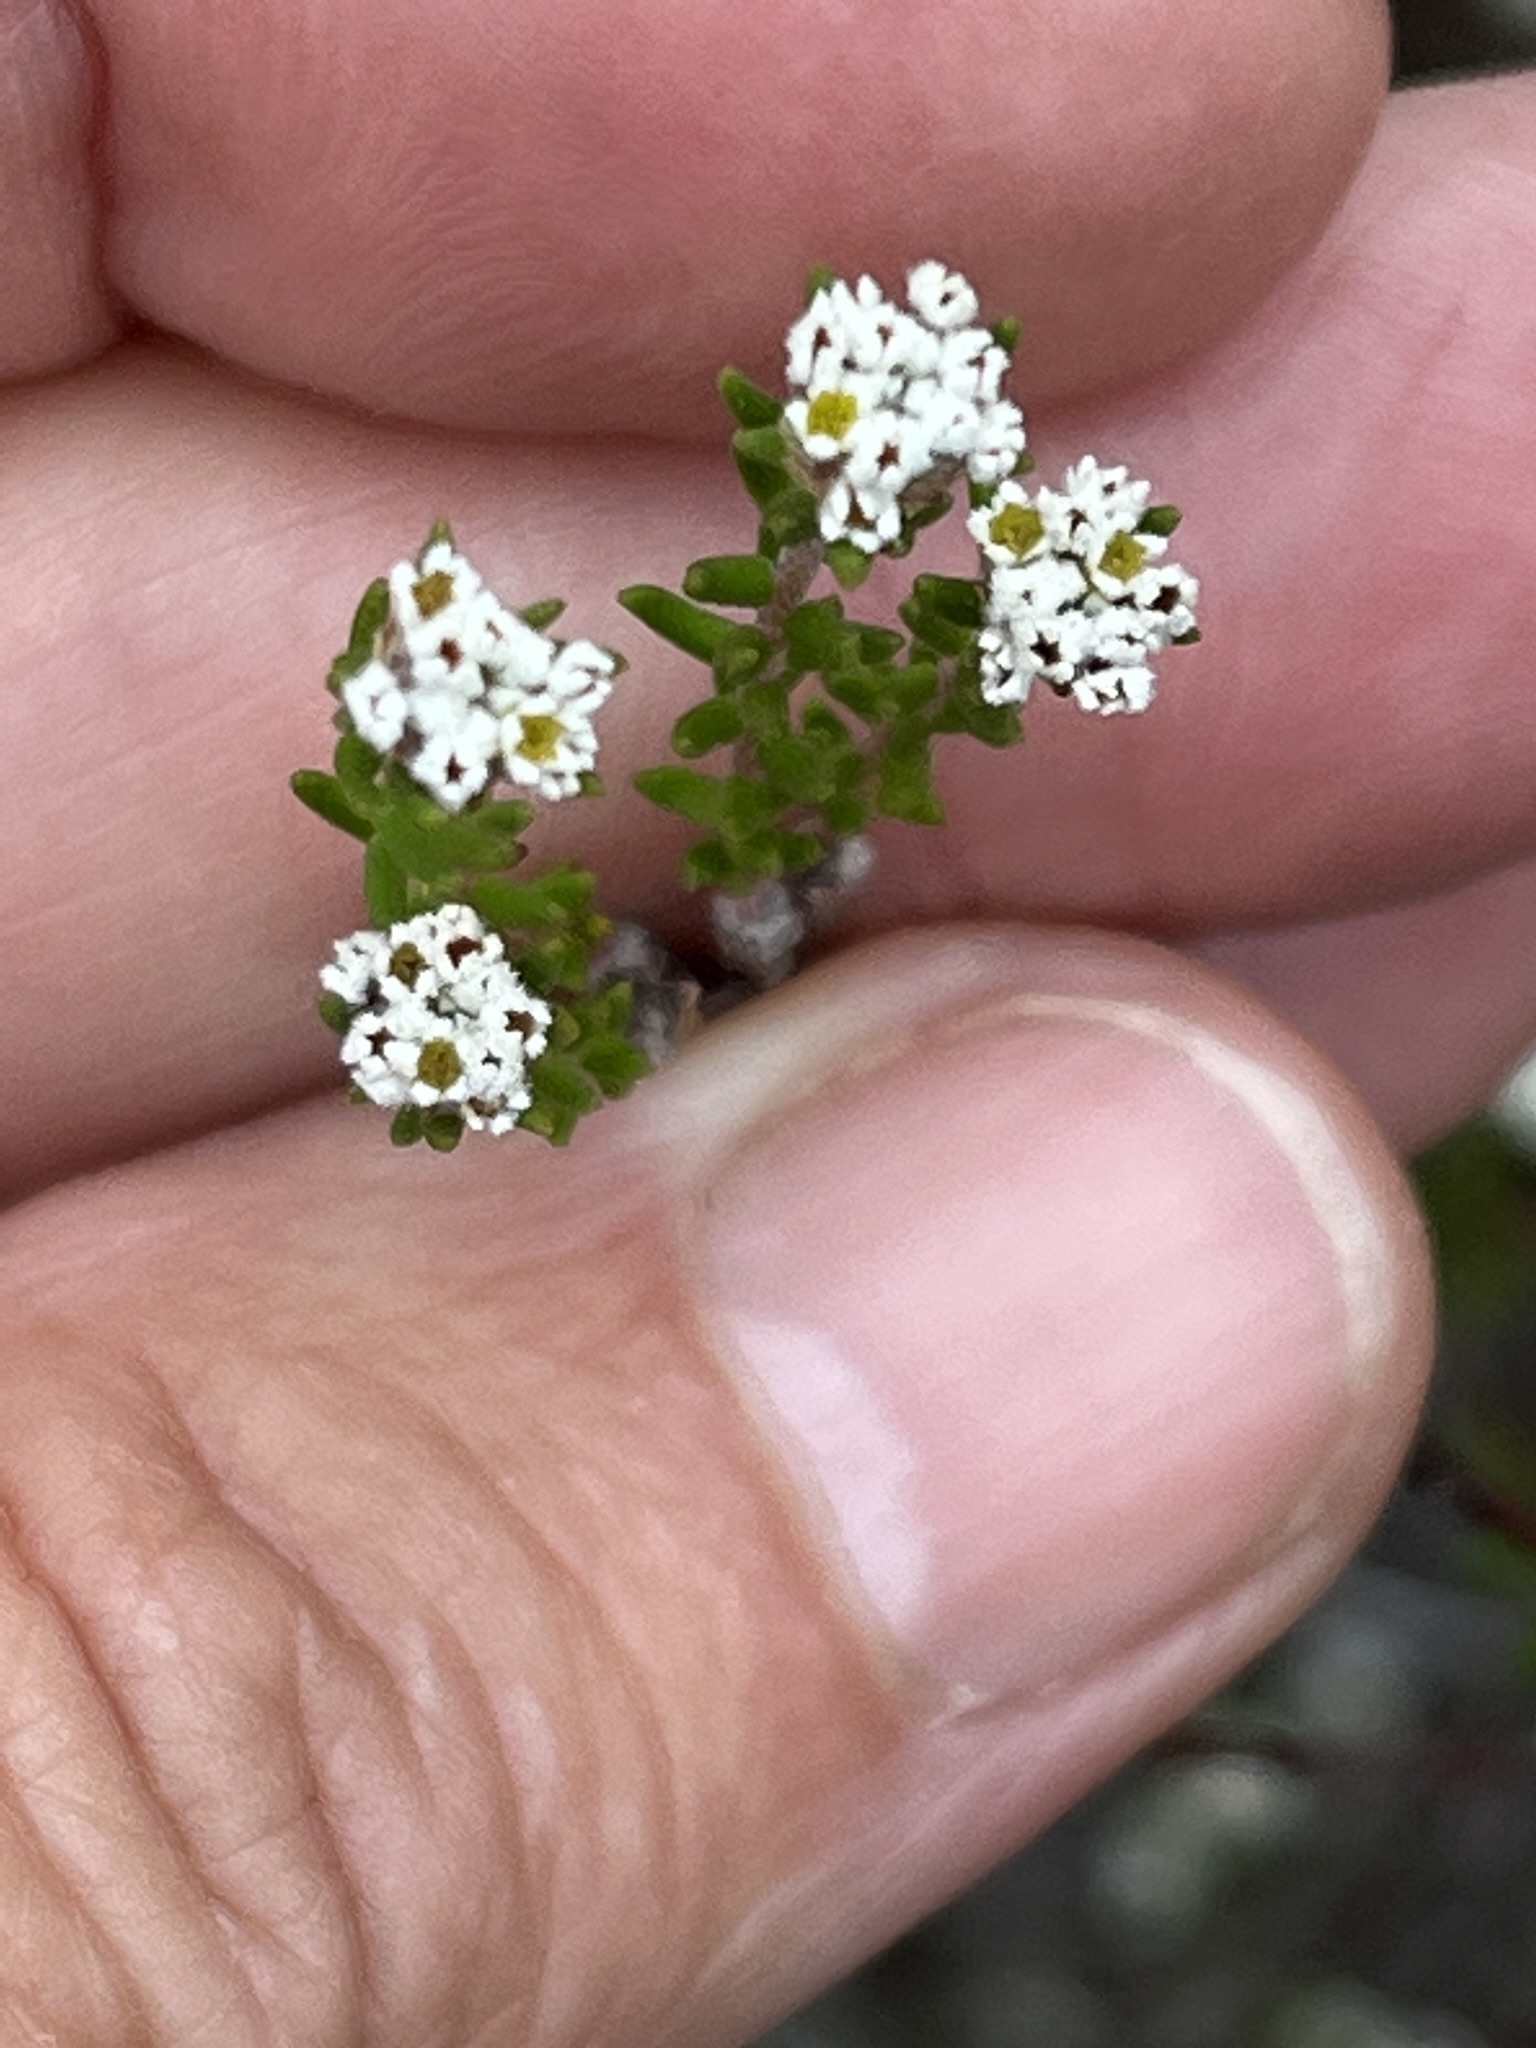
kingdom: Plantae
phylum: Tracheophyta
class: Magnoliopsida
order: Rosales
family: Rhamnaceae
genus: Phylica
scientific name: Phylica parvula
